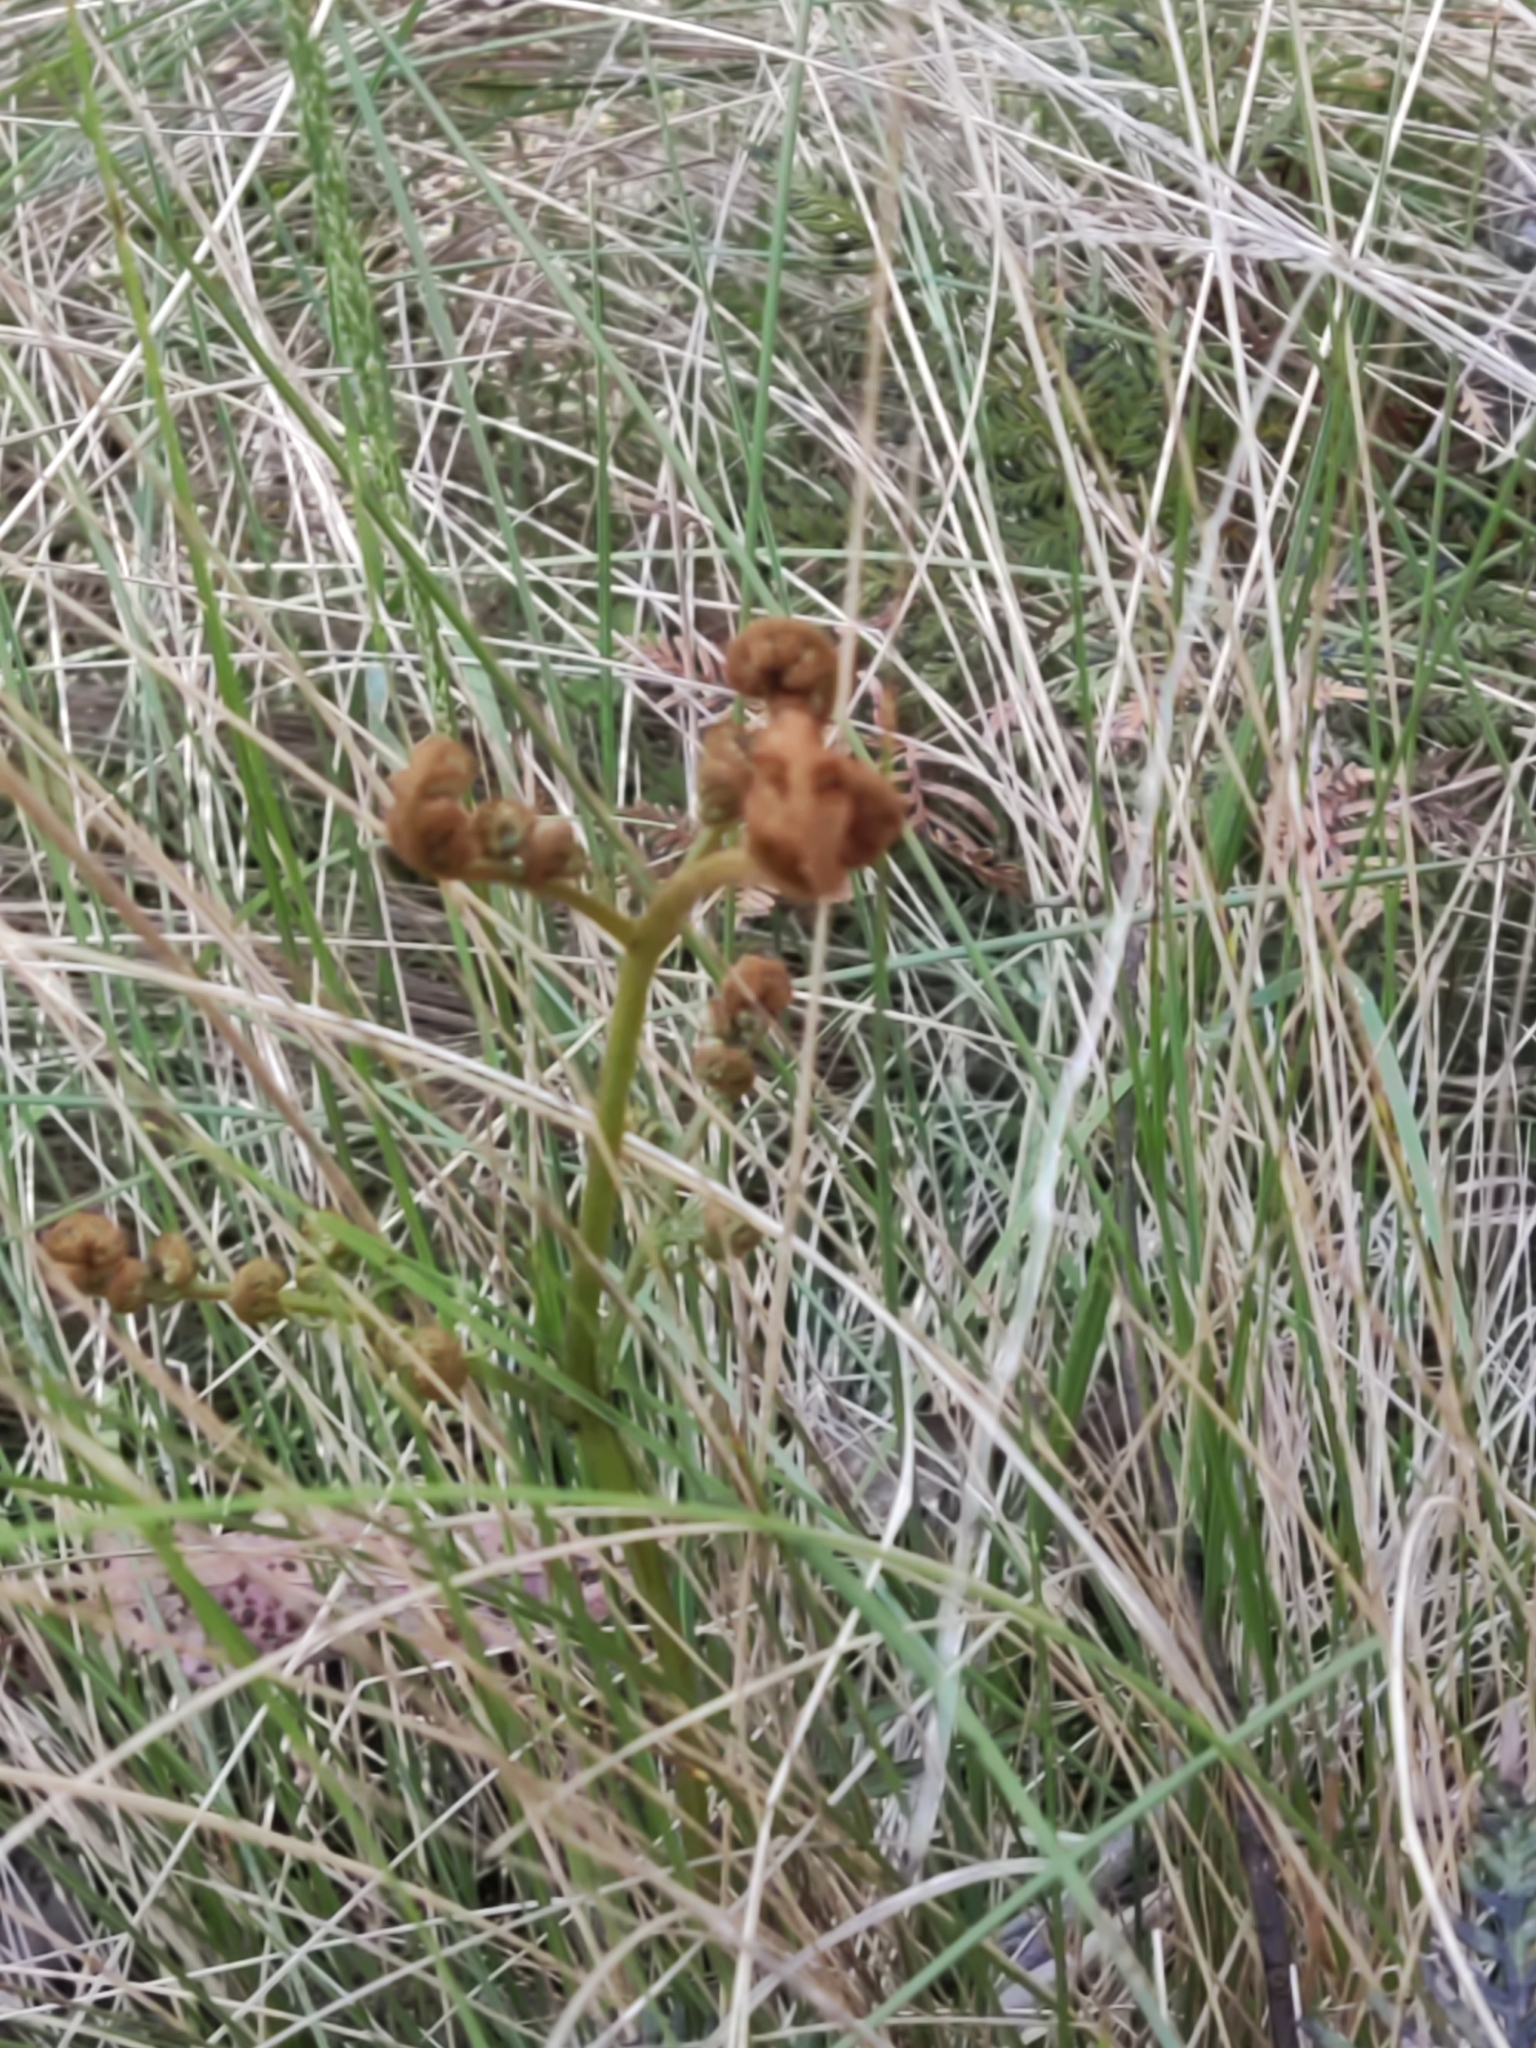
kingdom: Plantae
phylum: Tracheophyta
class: Polypodiopsida
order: Polypodiales
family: Dennstaedtiaceae
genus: Pteridium
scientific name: Pteridium esculentum
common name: Bracken fern
